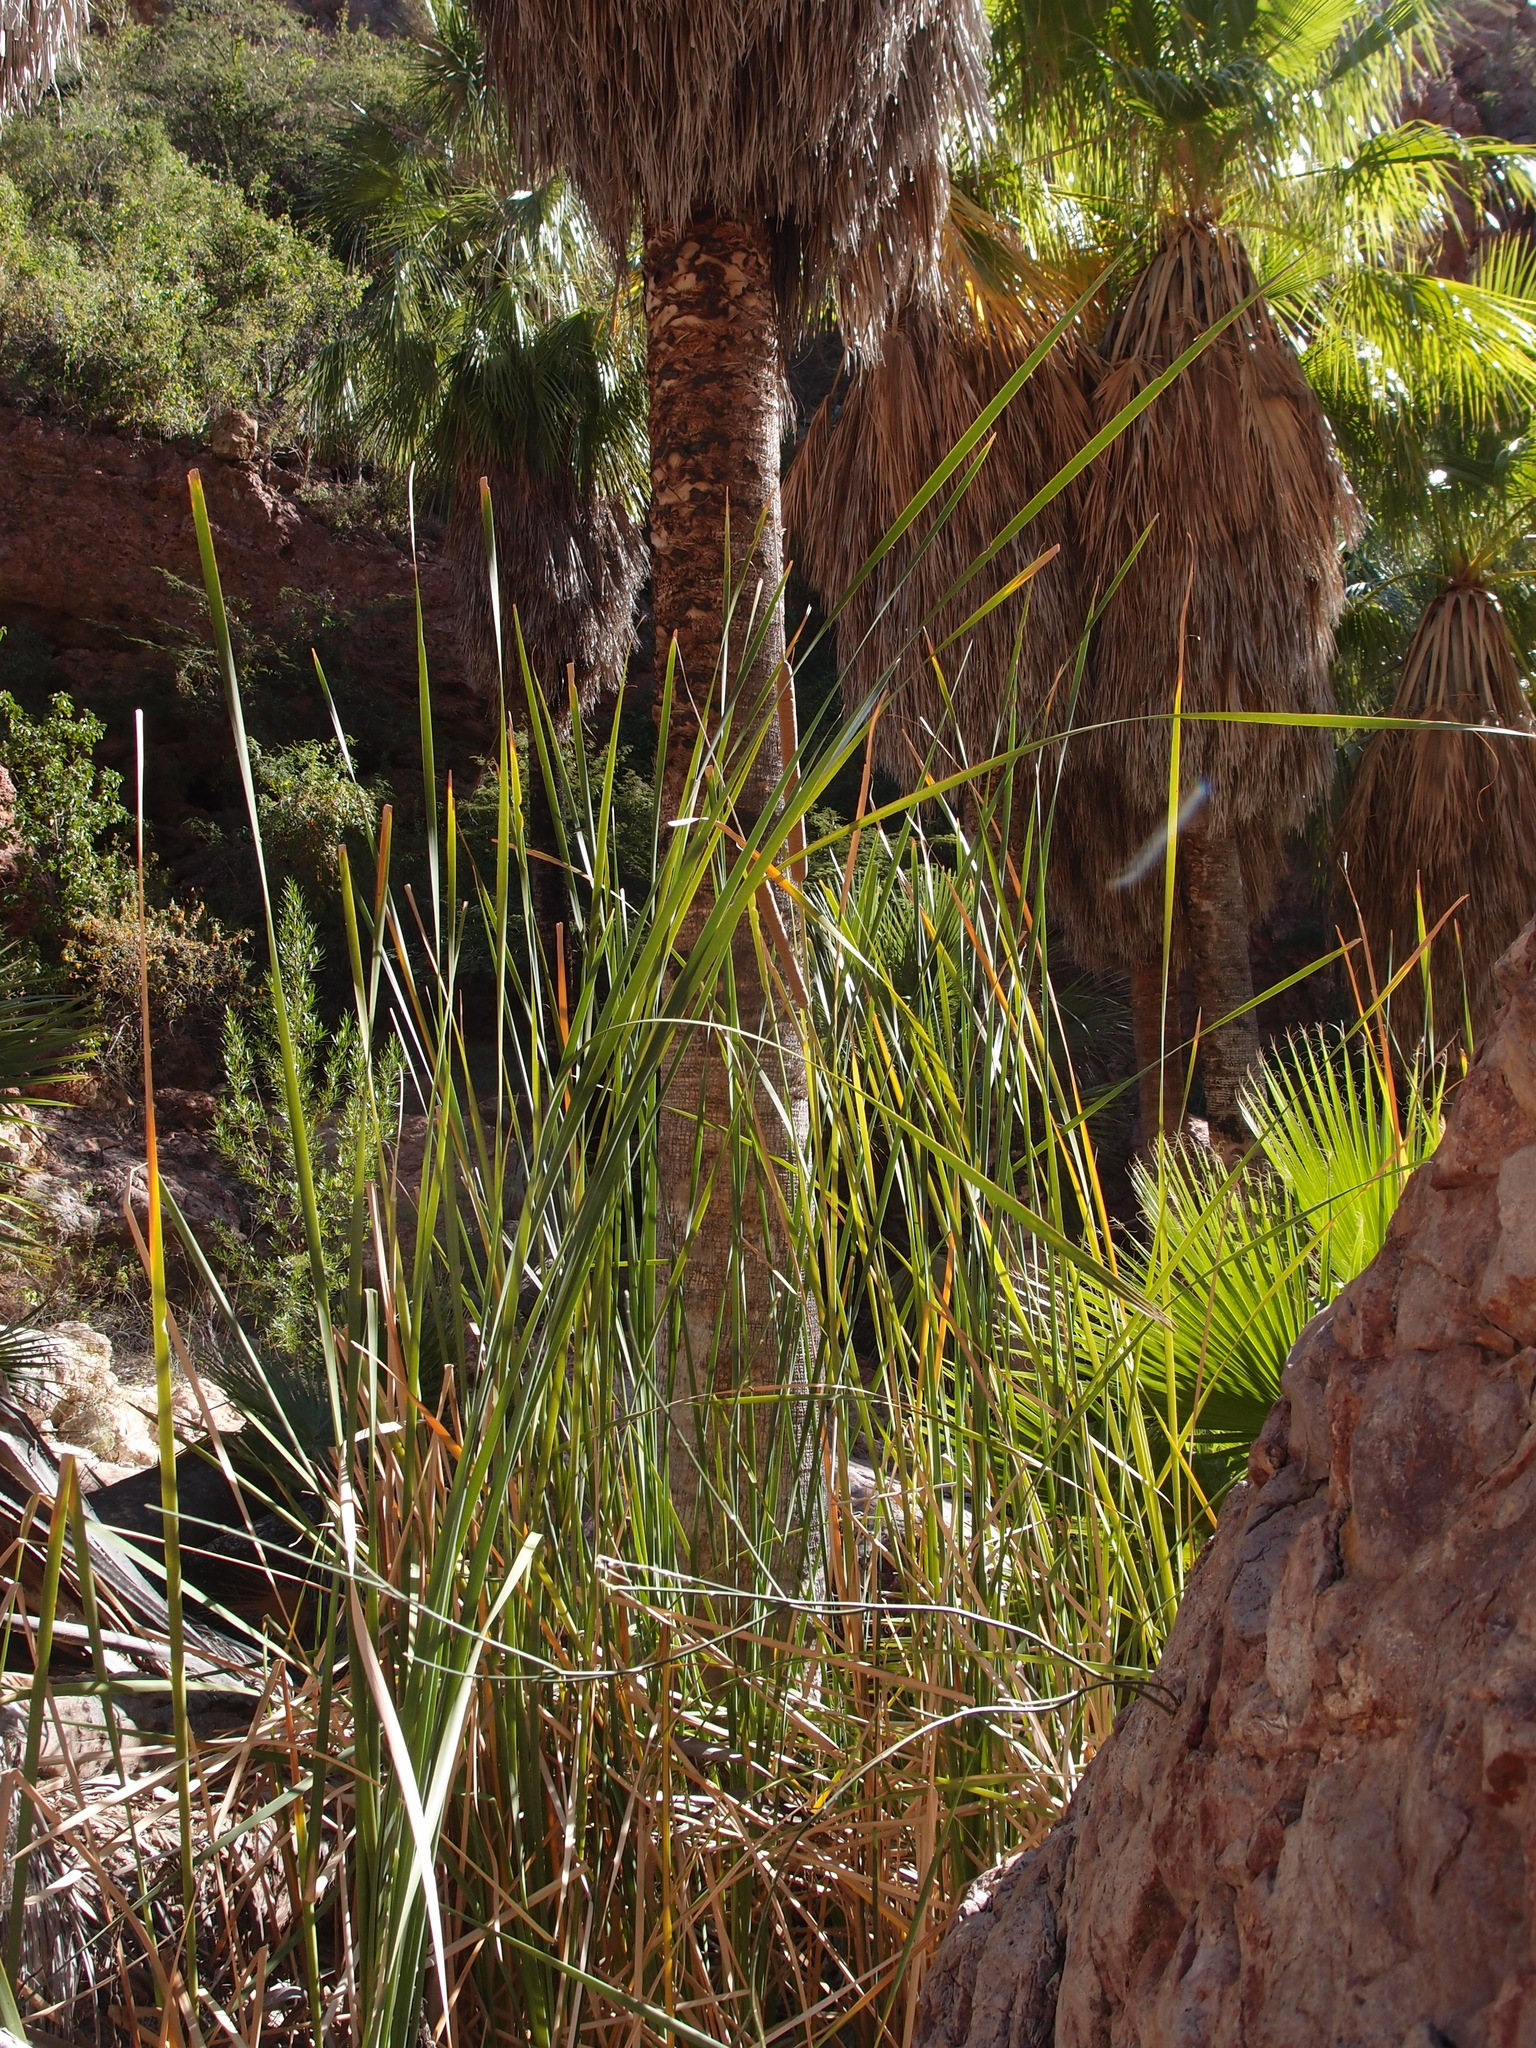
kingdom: Plantae
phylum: Tracheophyta
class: Liliopsida
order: Poales
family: Typhaceae
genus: Typha
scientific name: Typha domingensis
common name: Southern cattail
